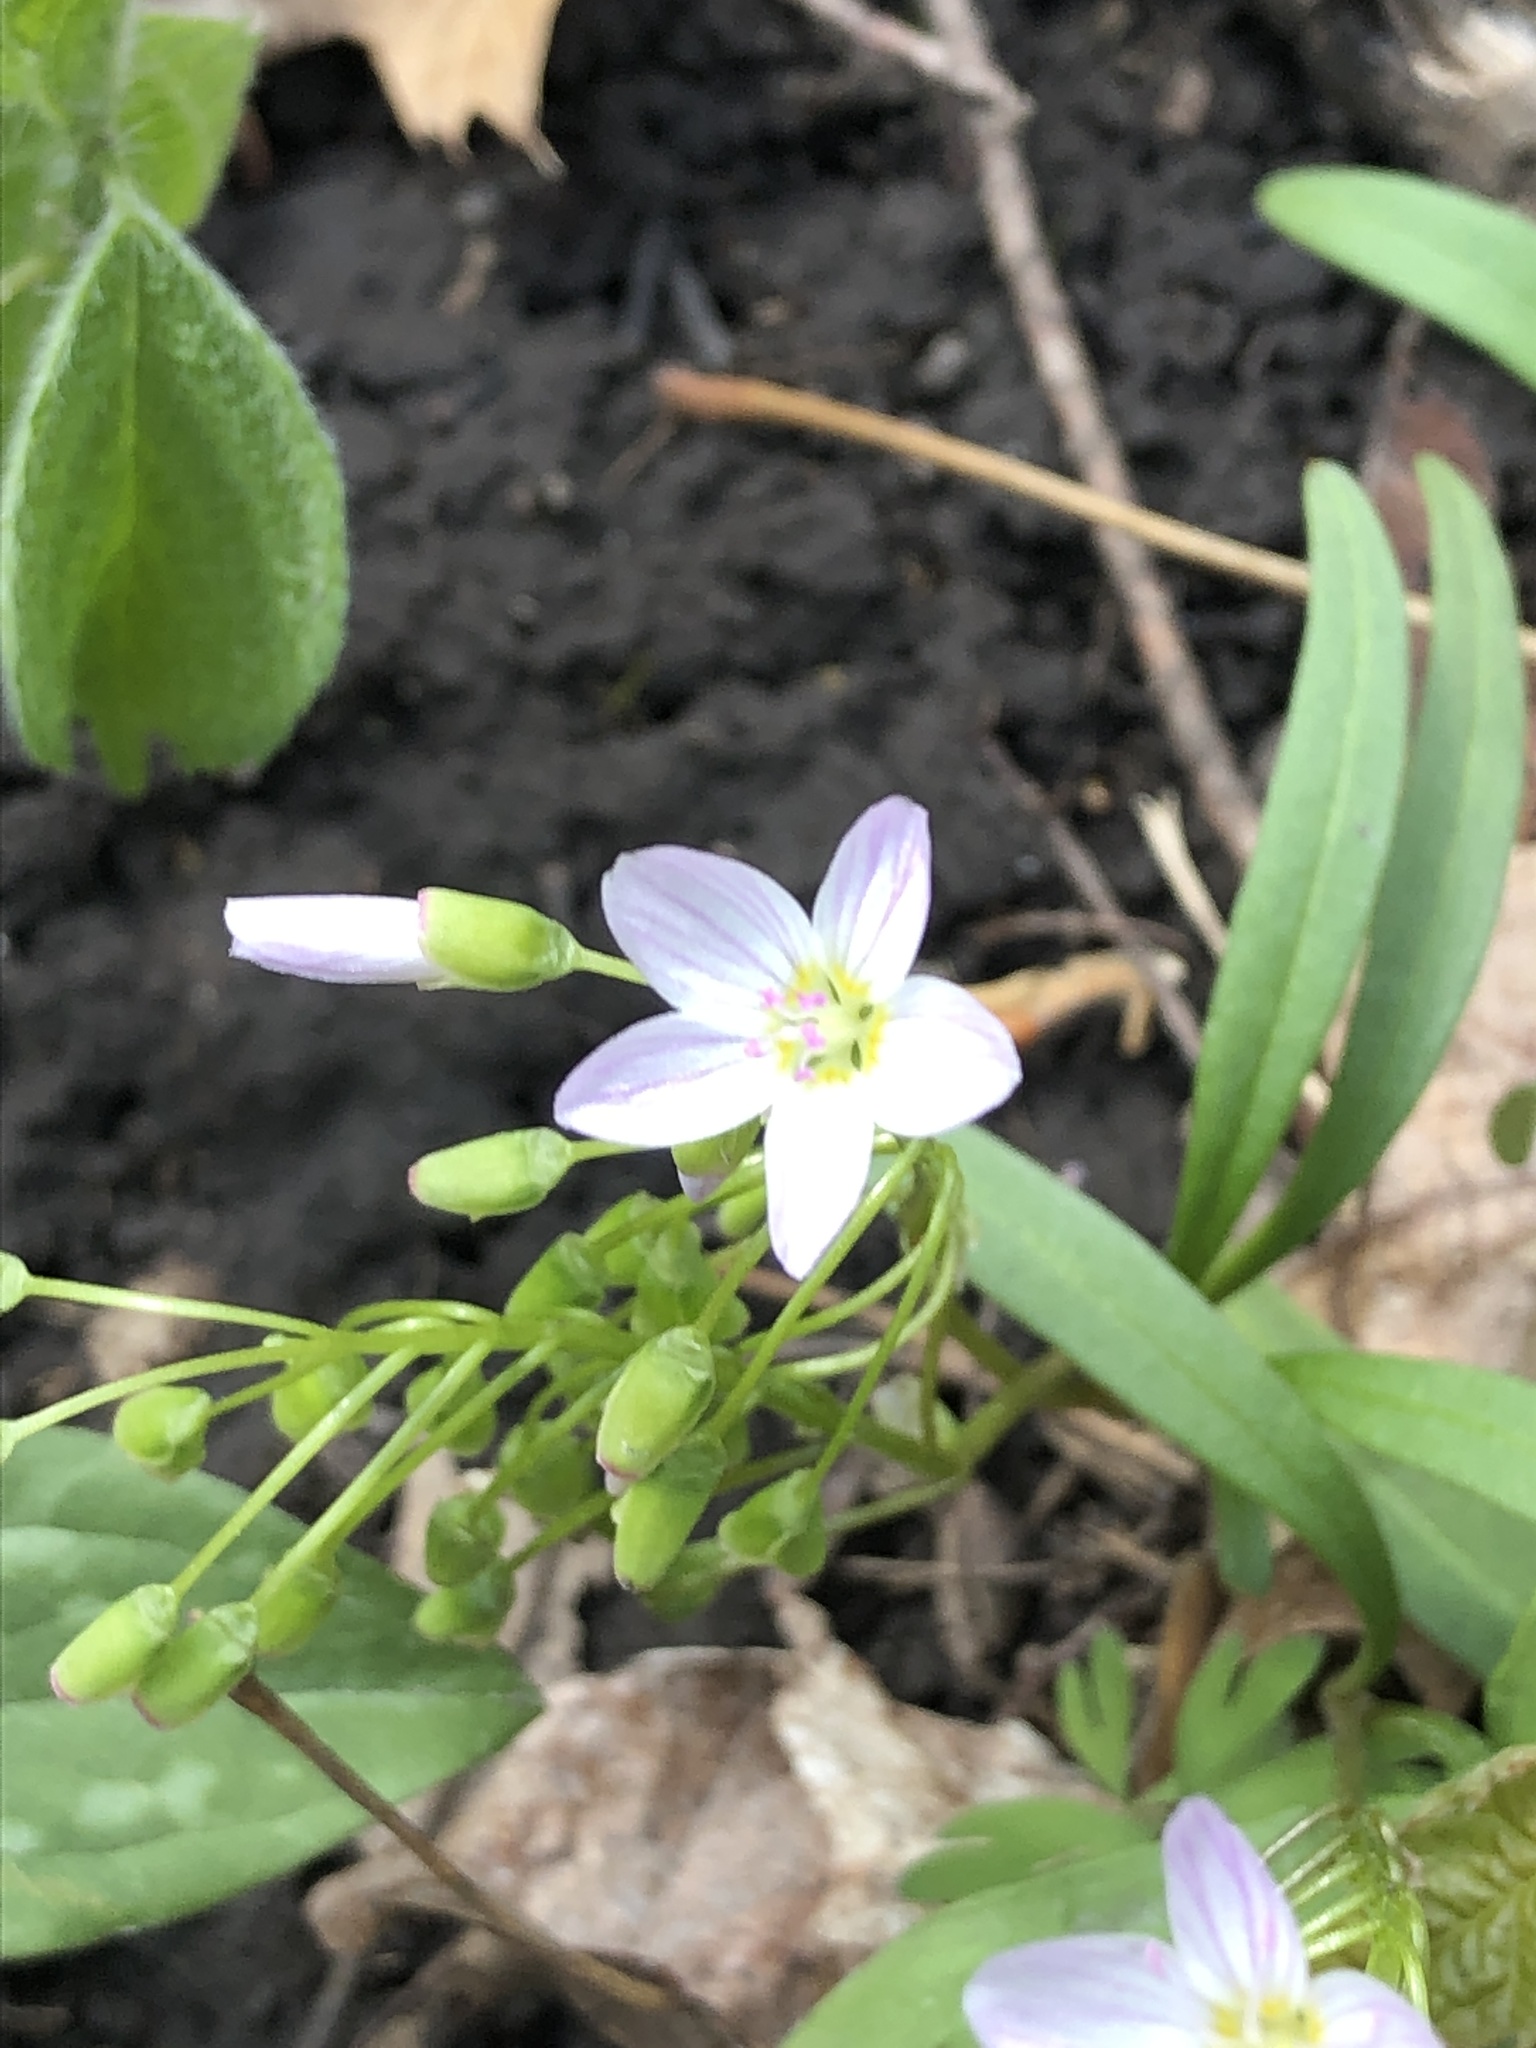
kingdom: Plantae
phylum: Tracheophyta
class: Magnoliopsida
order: Caryophyllales
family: Montiaceae
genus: Claytonia
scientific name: Claytonia virginica
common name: Virginia springbeauty
